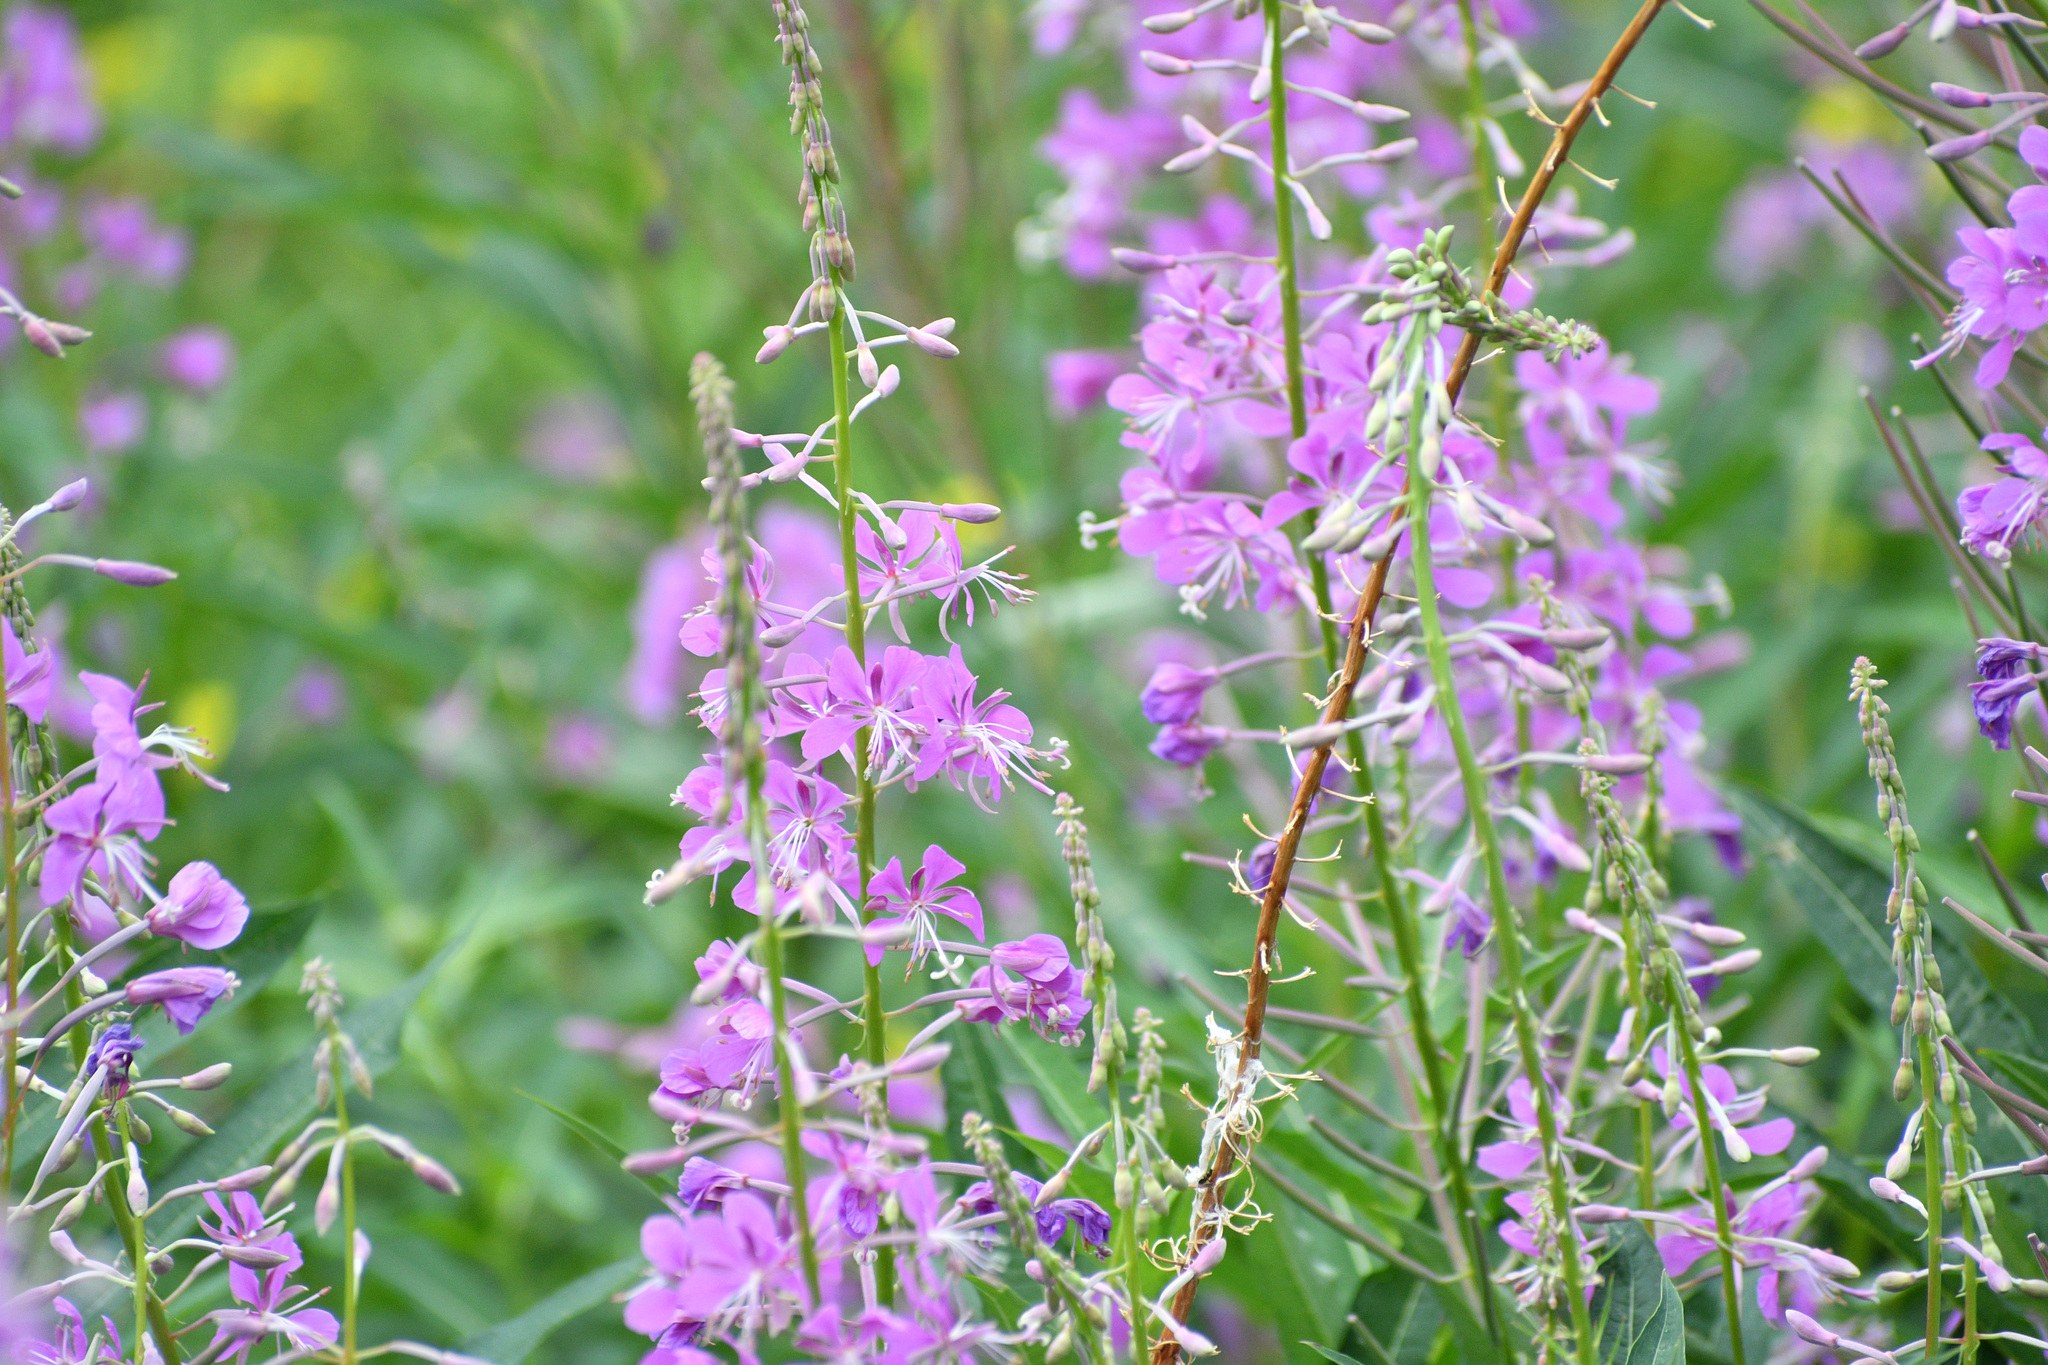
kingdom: Plantae
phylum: Tracheophyta
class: Magnoliopsida
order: Myrtales
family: Onagraceae
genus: Chamaenerion
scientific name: Chamaenerion angustifolium
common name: Fireweed
